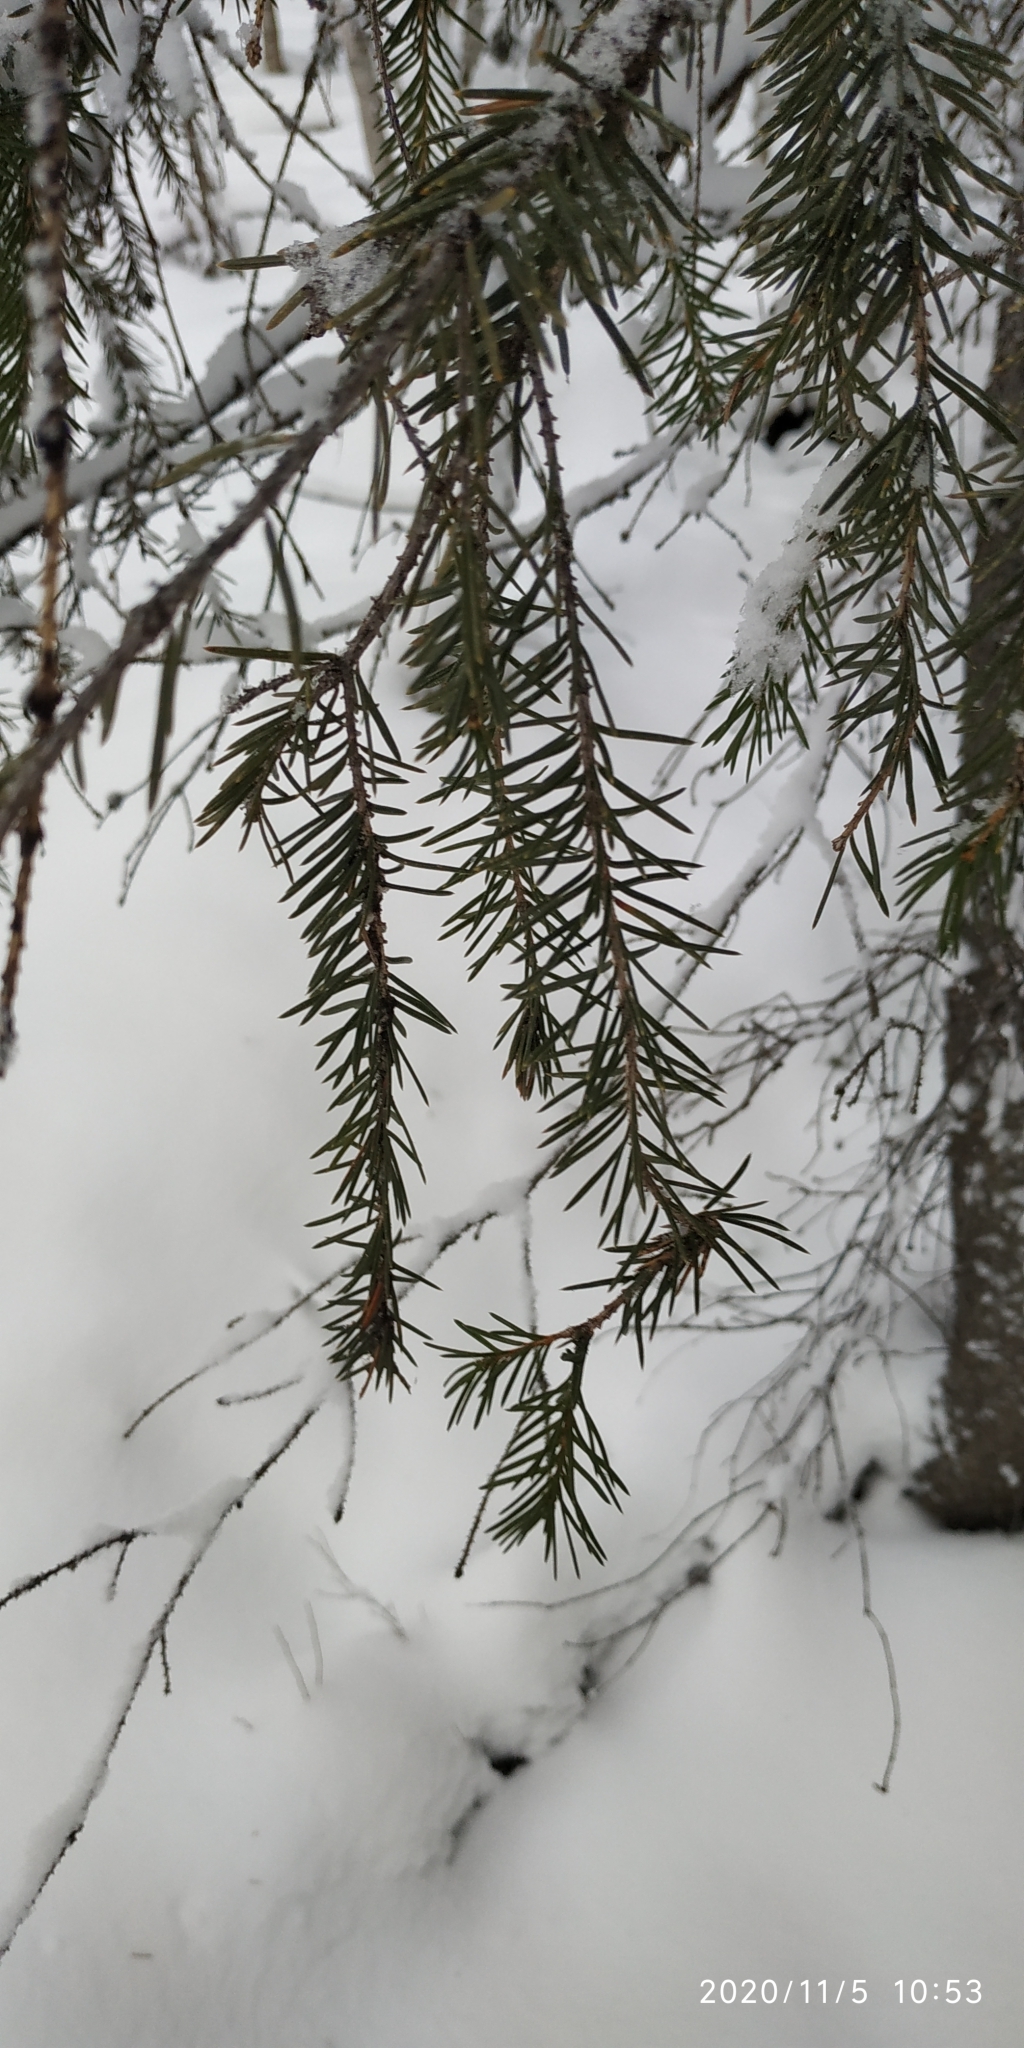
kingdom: Plantae
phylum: Tracheophyta
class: Pinopsida
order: Pinales
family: Pinaceae
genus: Picea
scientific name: Picea obovata
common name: Siberian spruce
